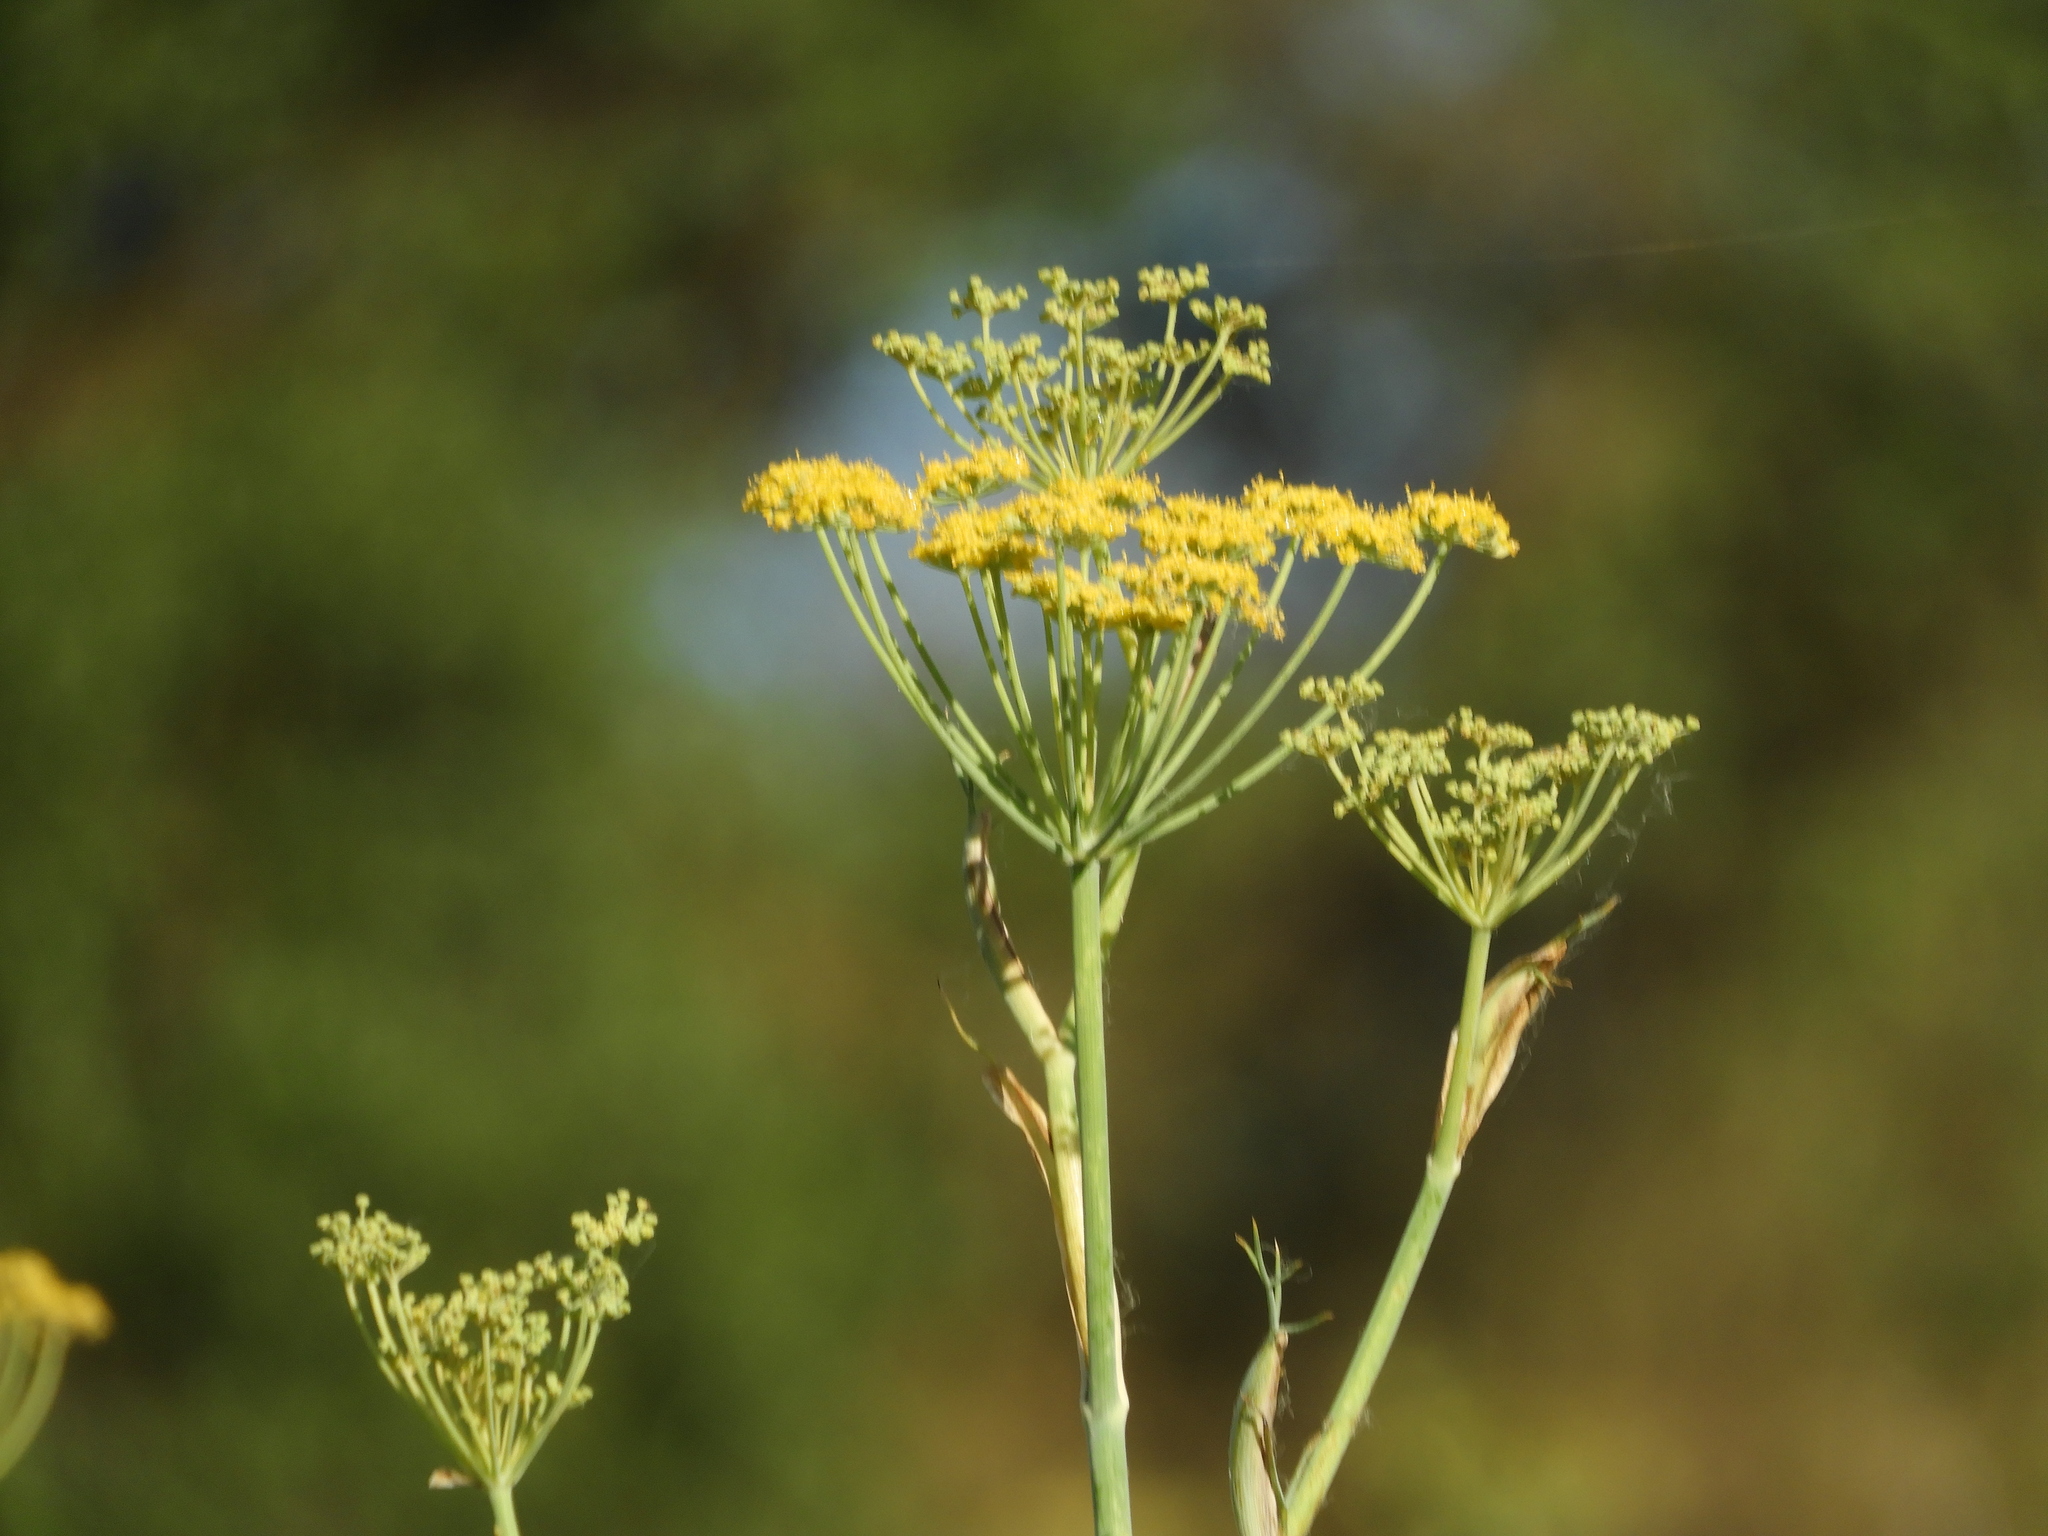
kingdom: Plantae
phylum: Tracheophyta
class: Magnoliopsida
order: Apiales
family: Apiaceae
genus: Foeniculum
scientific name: Foeniculum vulgare
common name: Fennel
